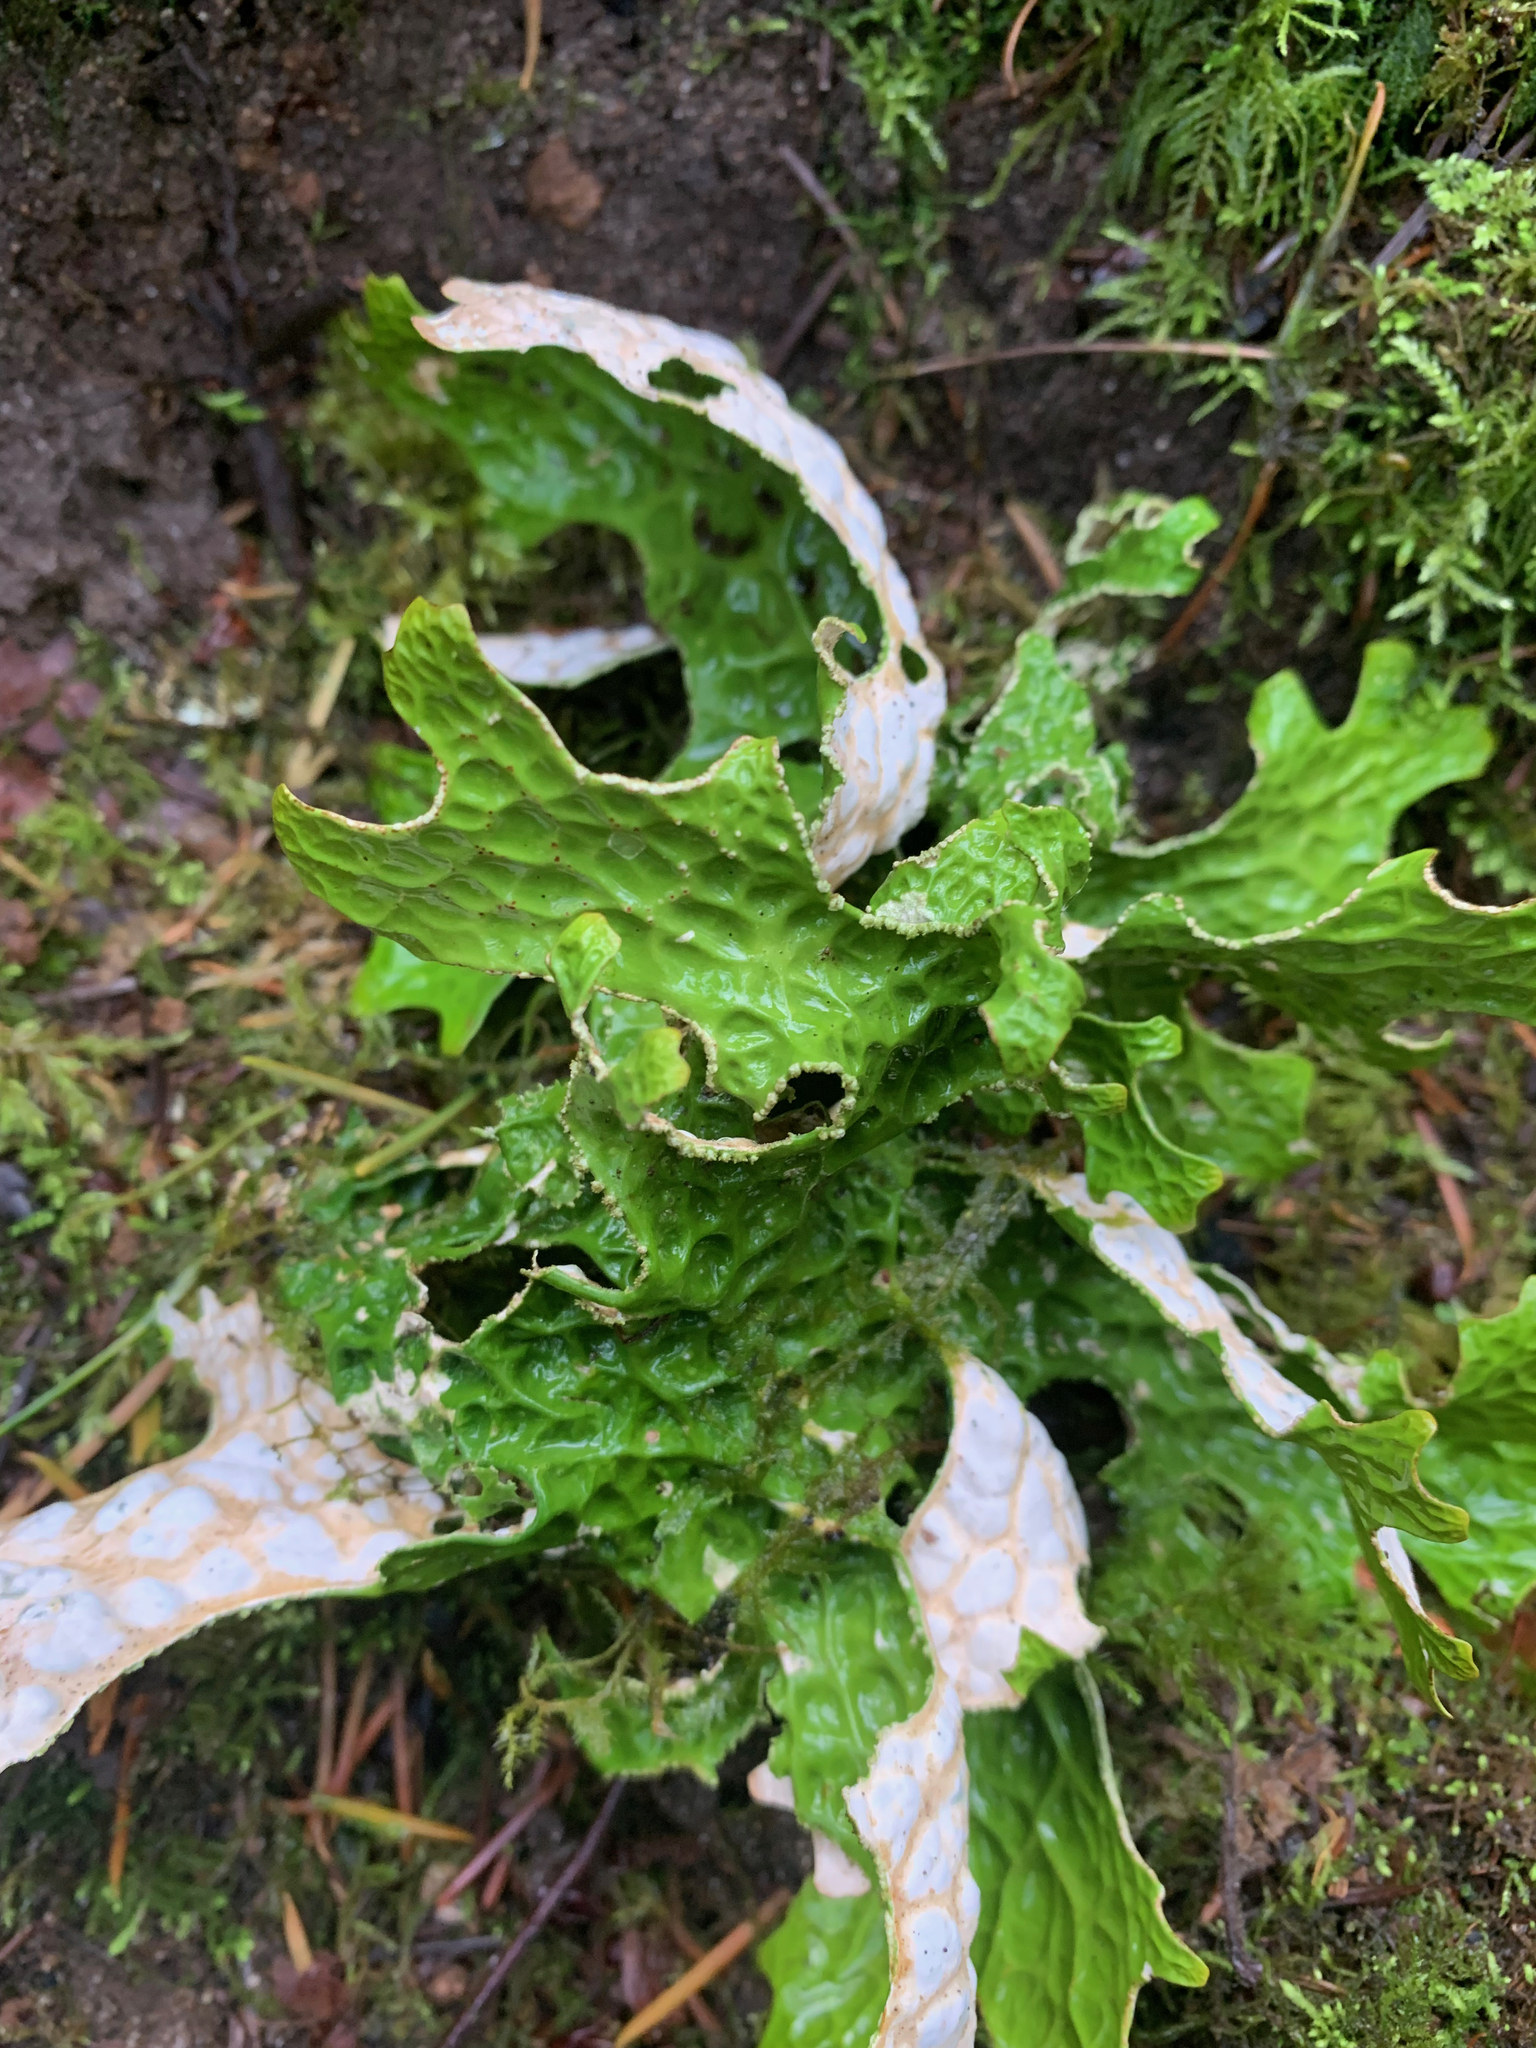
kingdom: Fungi
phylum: Ascomycota
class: Lecanoromycetes
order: Peltigerales
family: Lobariaceae
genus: Lobaria
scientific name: Lobaria pulmonaria
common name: Lungwort
